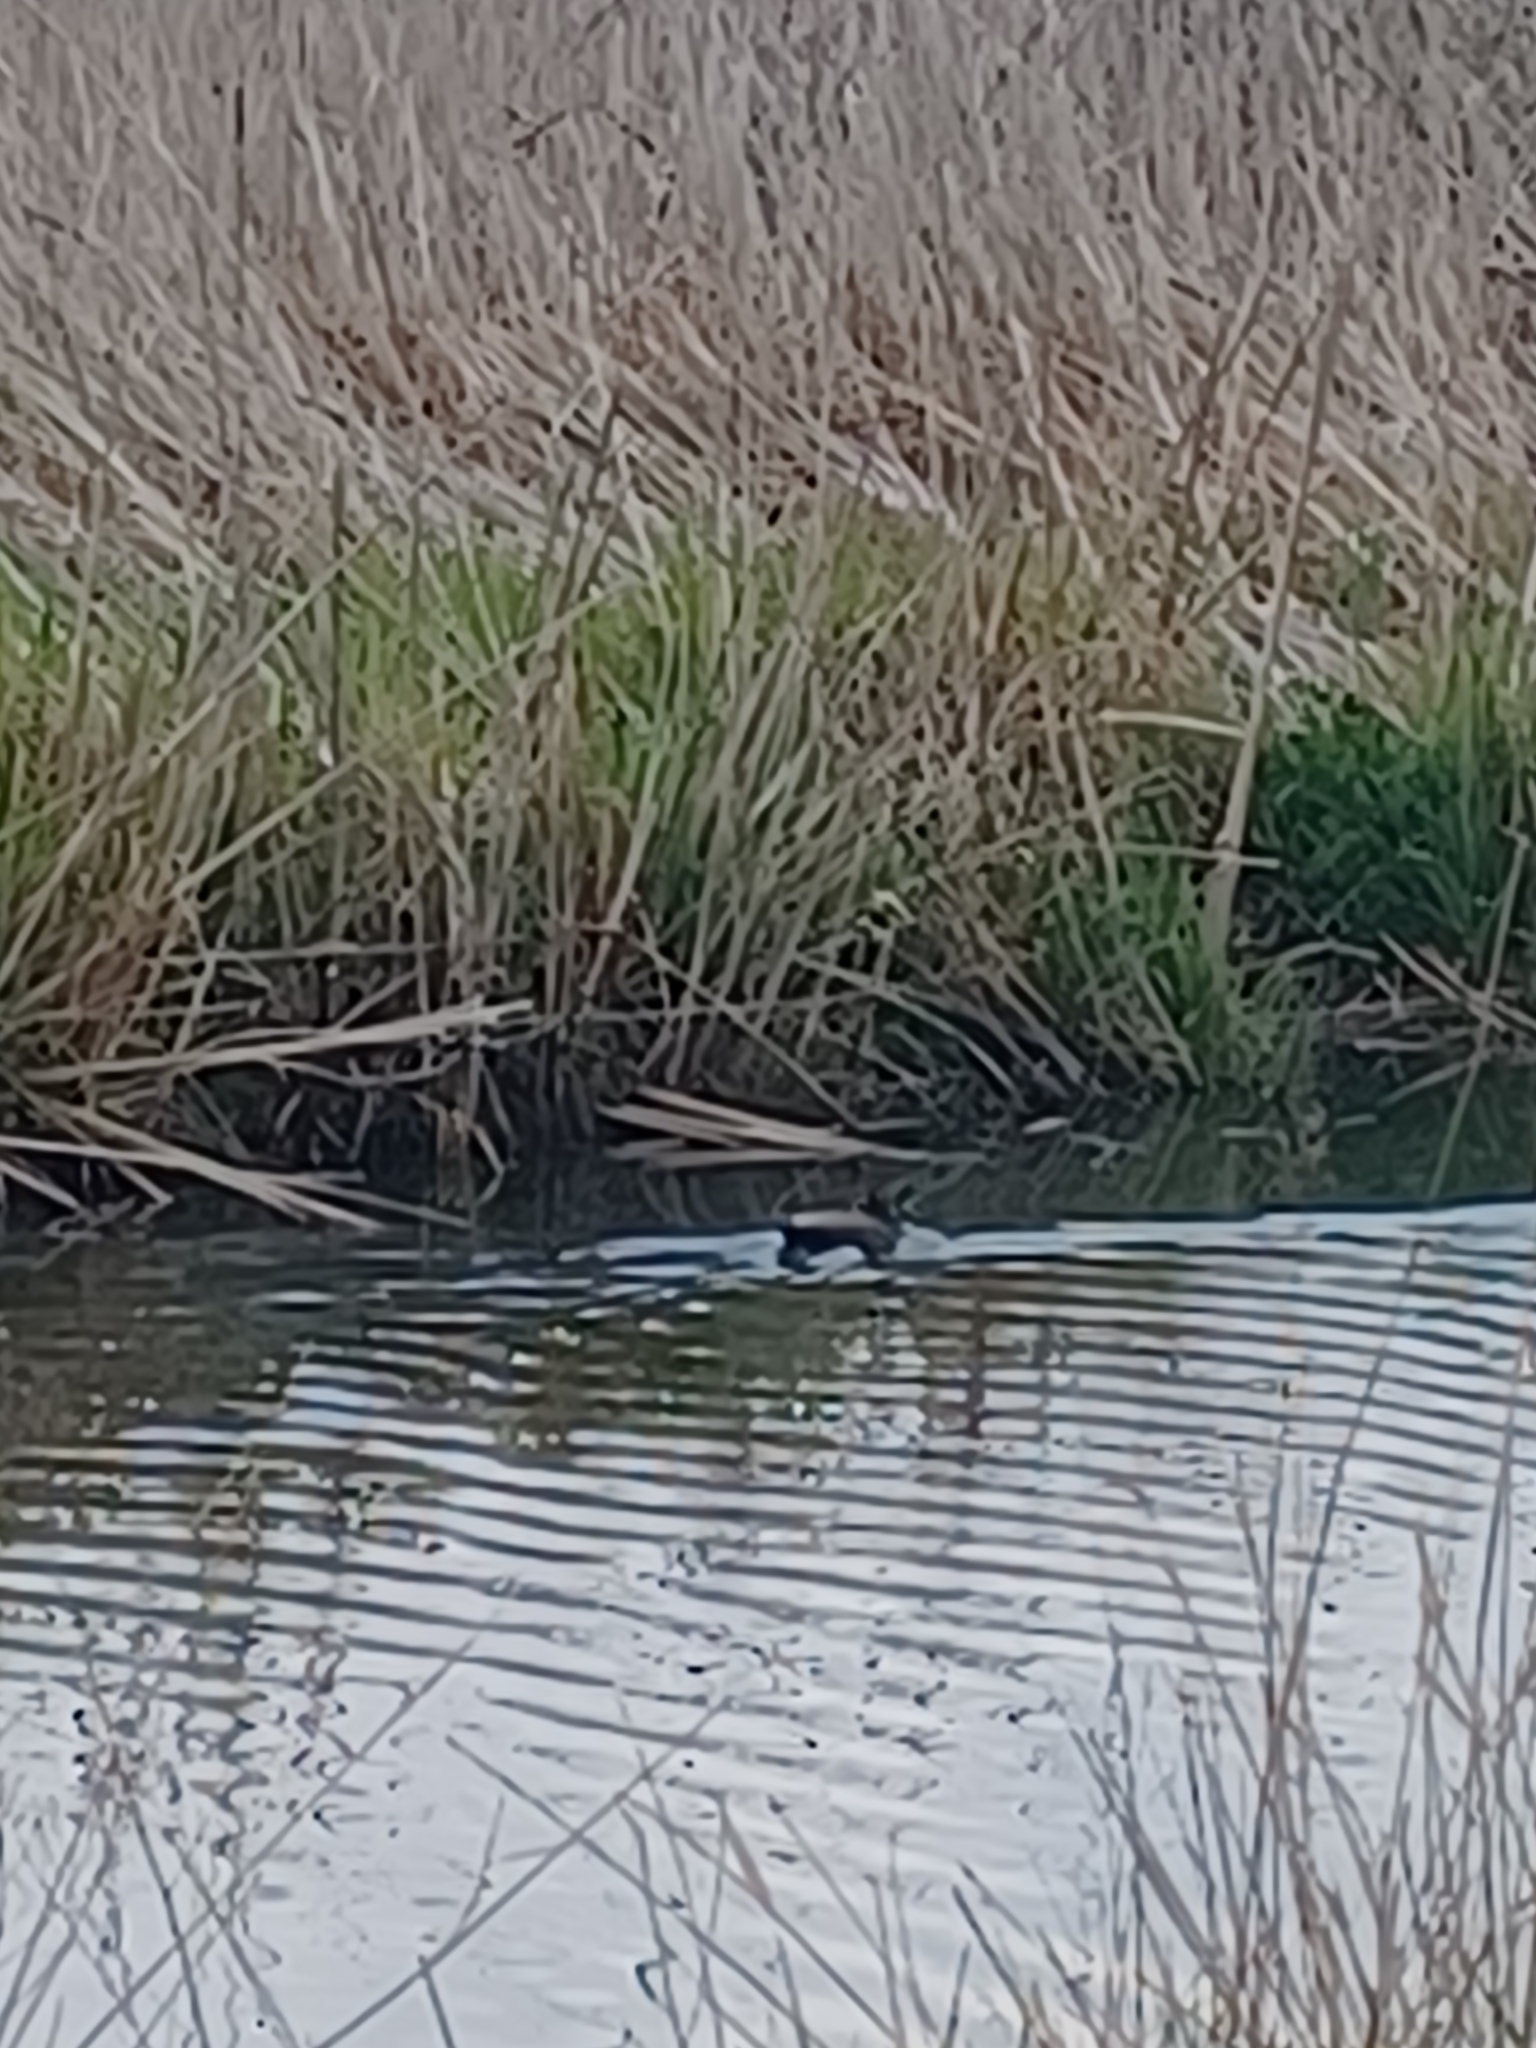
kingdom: Animalia
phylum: Chordata
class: Aves
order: Anseriformes
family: Anatidae
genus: Anas
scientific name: Anas platyrhynchos
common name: Mallard
